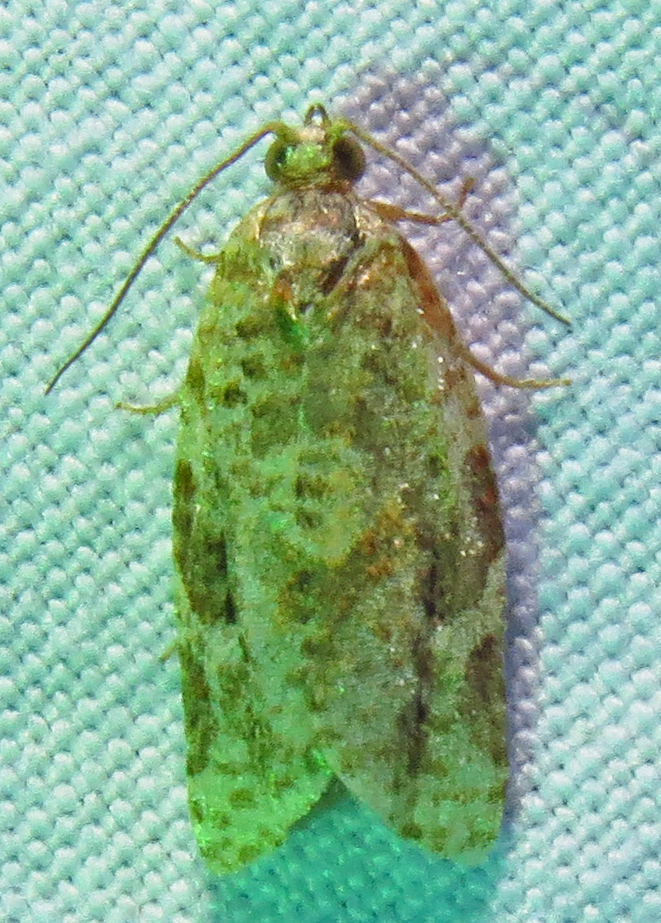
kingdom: Animalia
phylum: Arthropoda
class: Insecta
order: Lepidoptera
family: Tortricidae
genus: Argyrotaenia
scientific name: Argyrotaenia velutinana
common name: Red-banded leafroller moth
